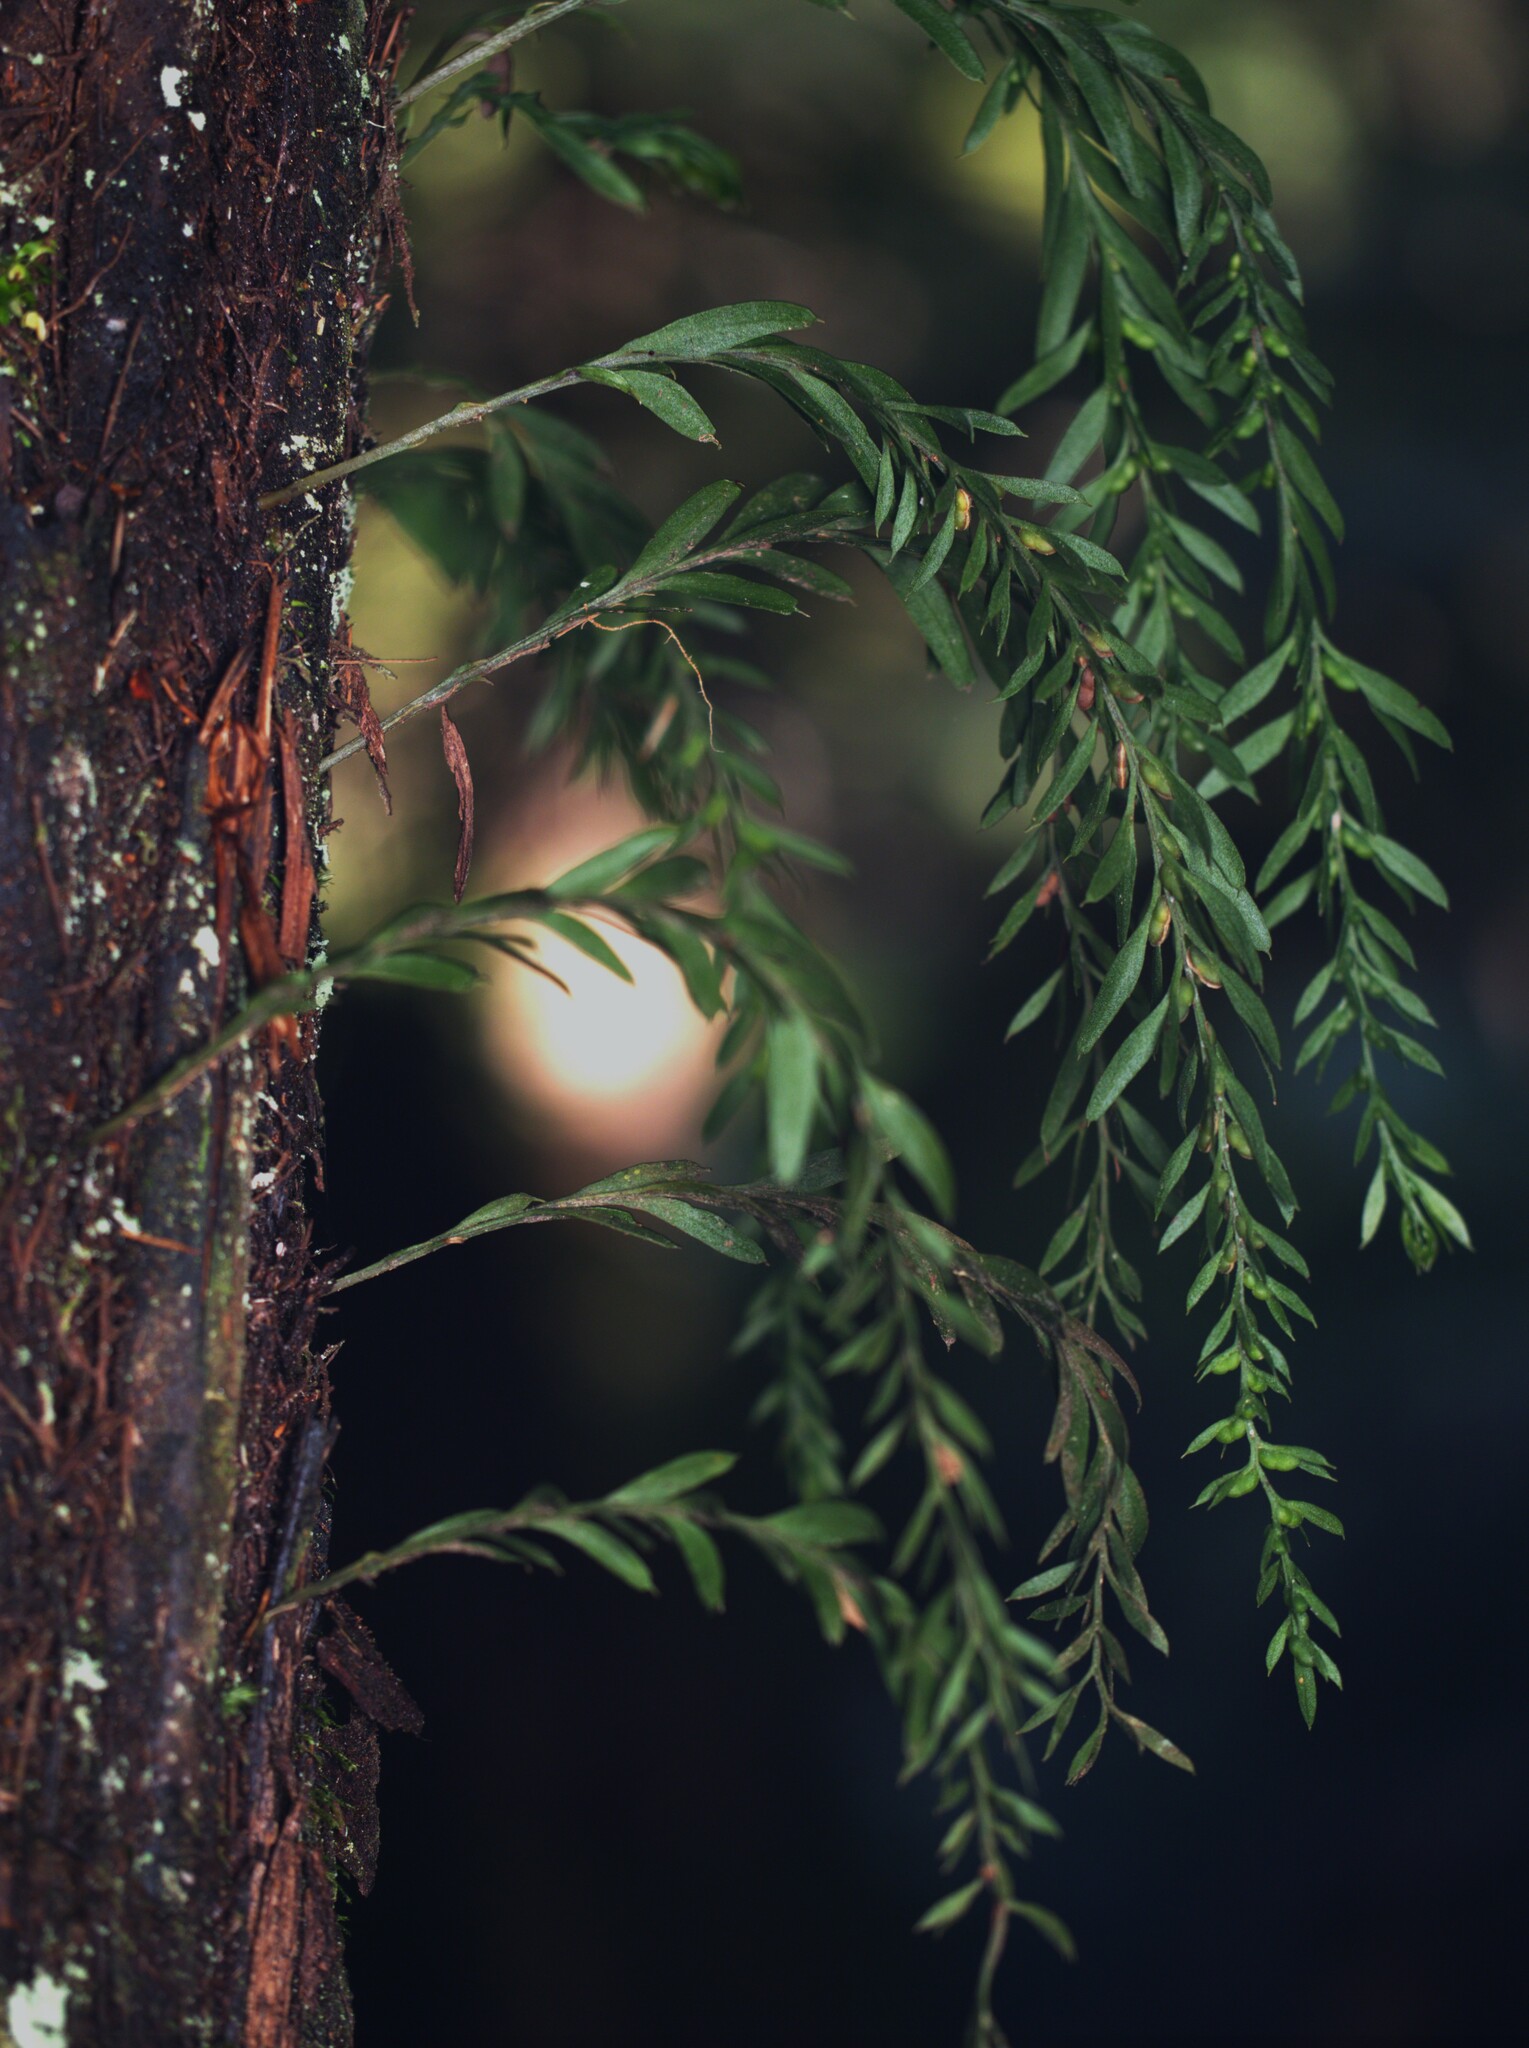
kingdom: Plantae
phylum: Tracheophyta
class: Polypodiopsida
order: Psilotales
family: Psilotaceae
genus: Tmesipteris
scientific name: Tmesipteris elongata
